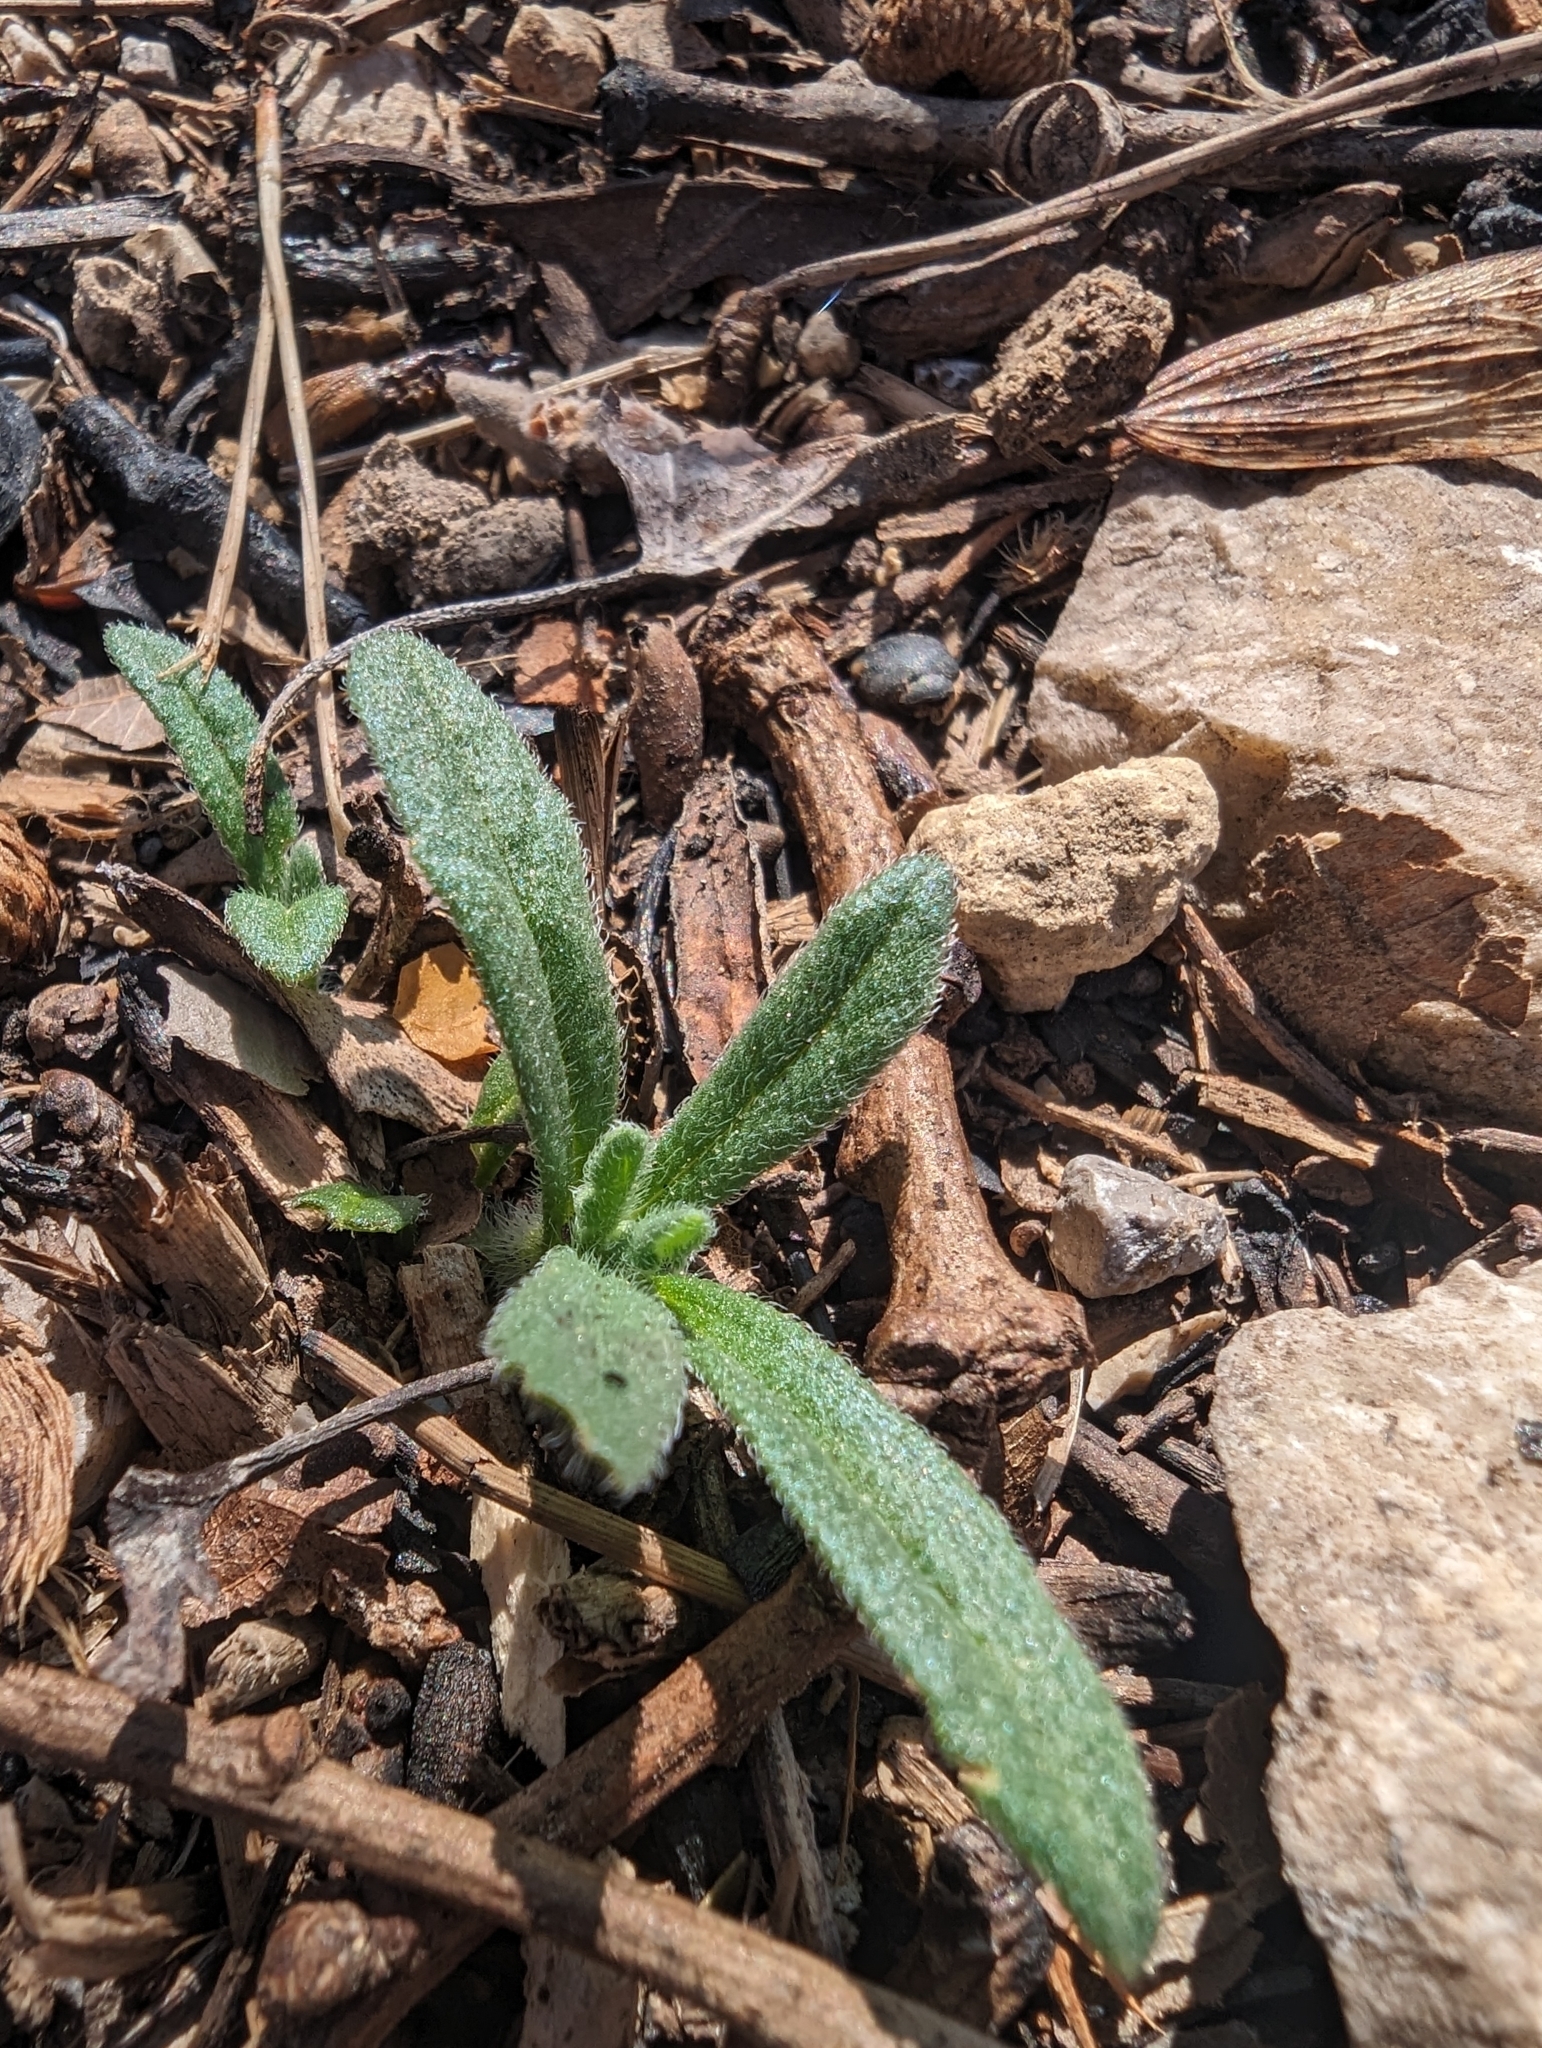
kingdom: Plantae
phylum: Tracheophyta
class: Magnoliopsida
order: Lamiales
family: Lamiaceae
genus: Ajuga
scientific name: Ajuga iva
